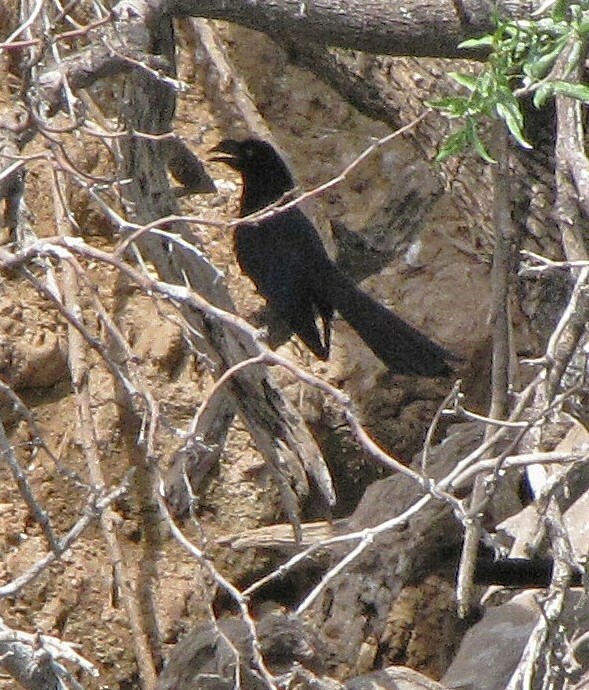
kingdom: Animalia
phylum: Chordata
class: Aves
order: Cuculiformes
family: Cuculidae
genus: Crotophaga
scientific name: Crotophaga major
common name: Greater ani
